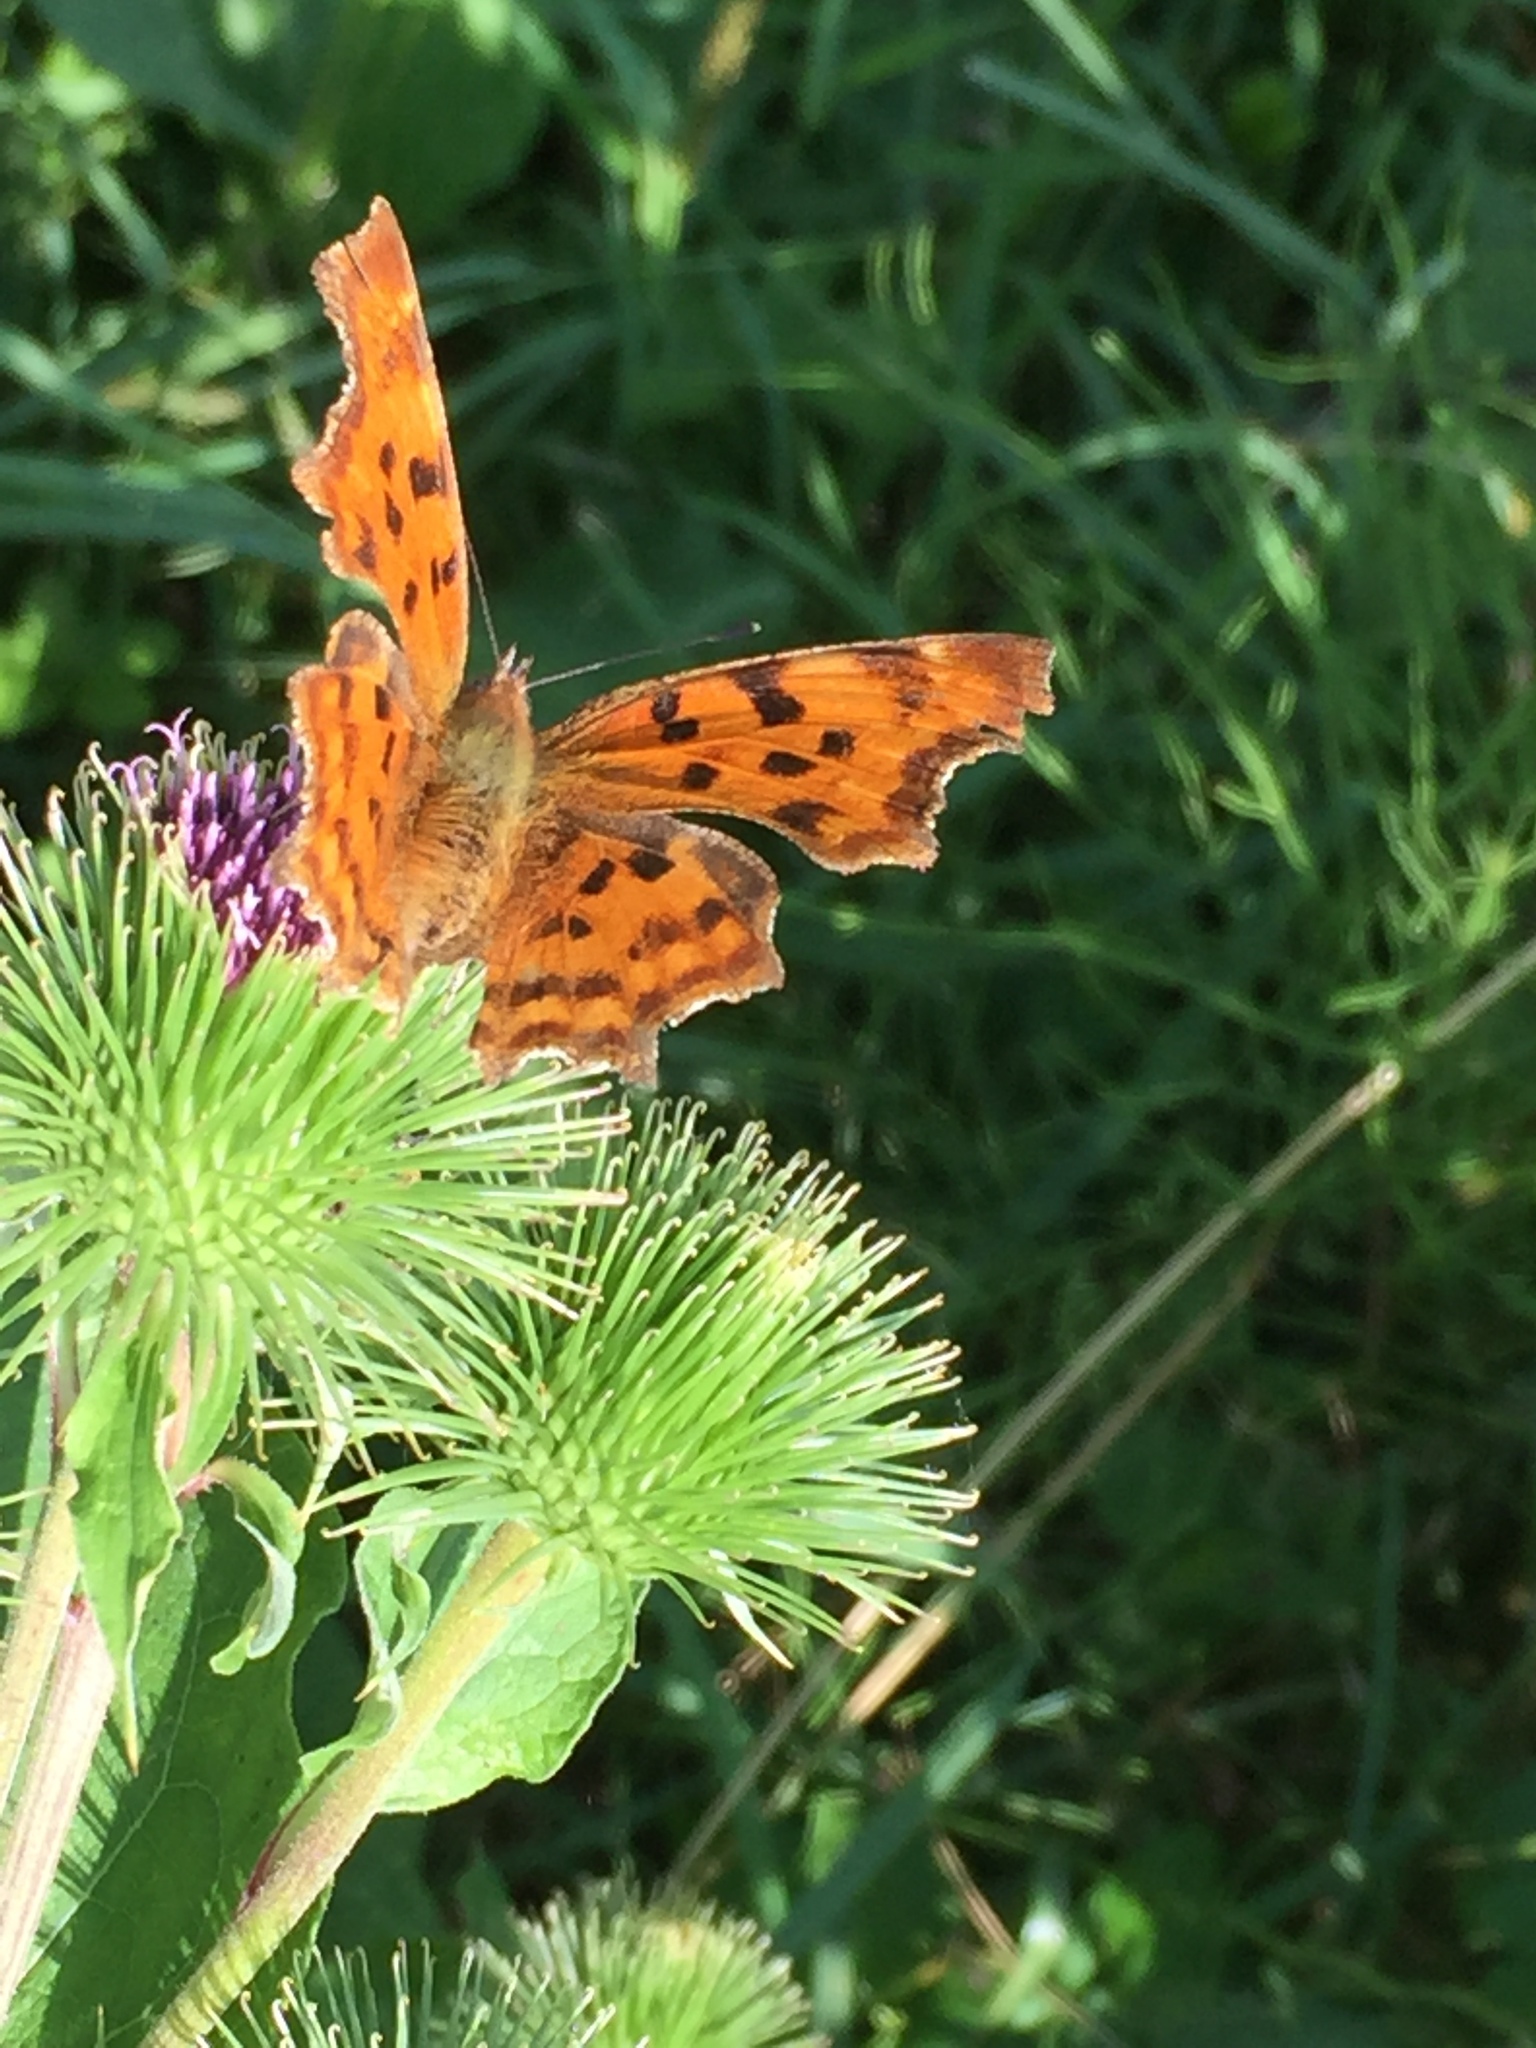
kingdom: Animalia
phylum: Arthropoda
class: Insecta
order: Lepidoptera
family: Nymphalidae
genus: Polygonia
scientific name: Polygonia c-album
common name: Comma
